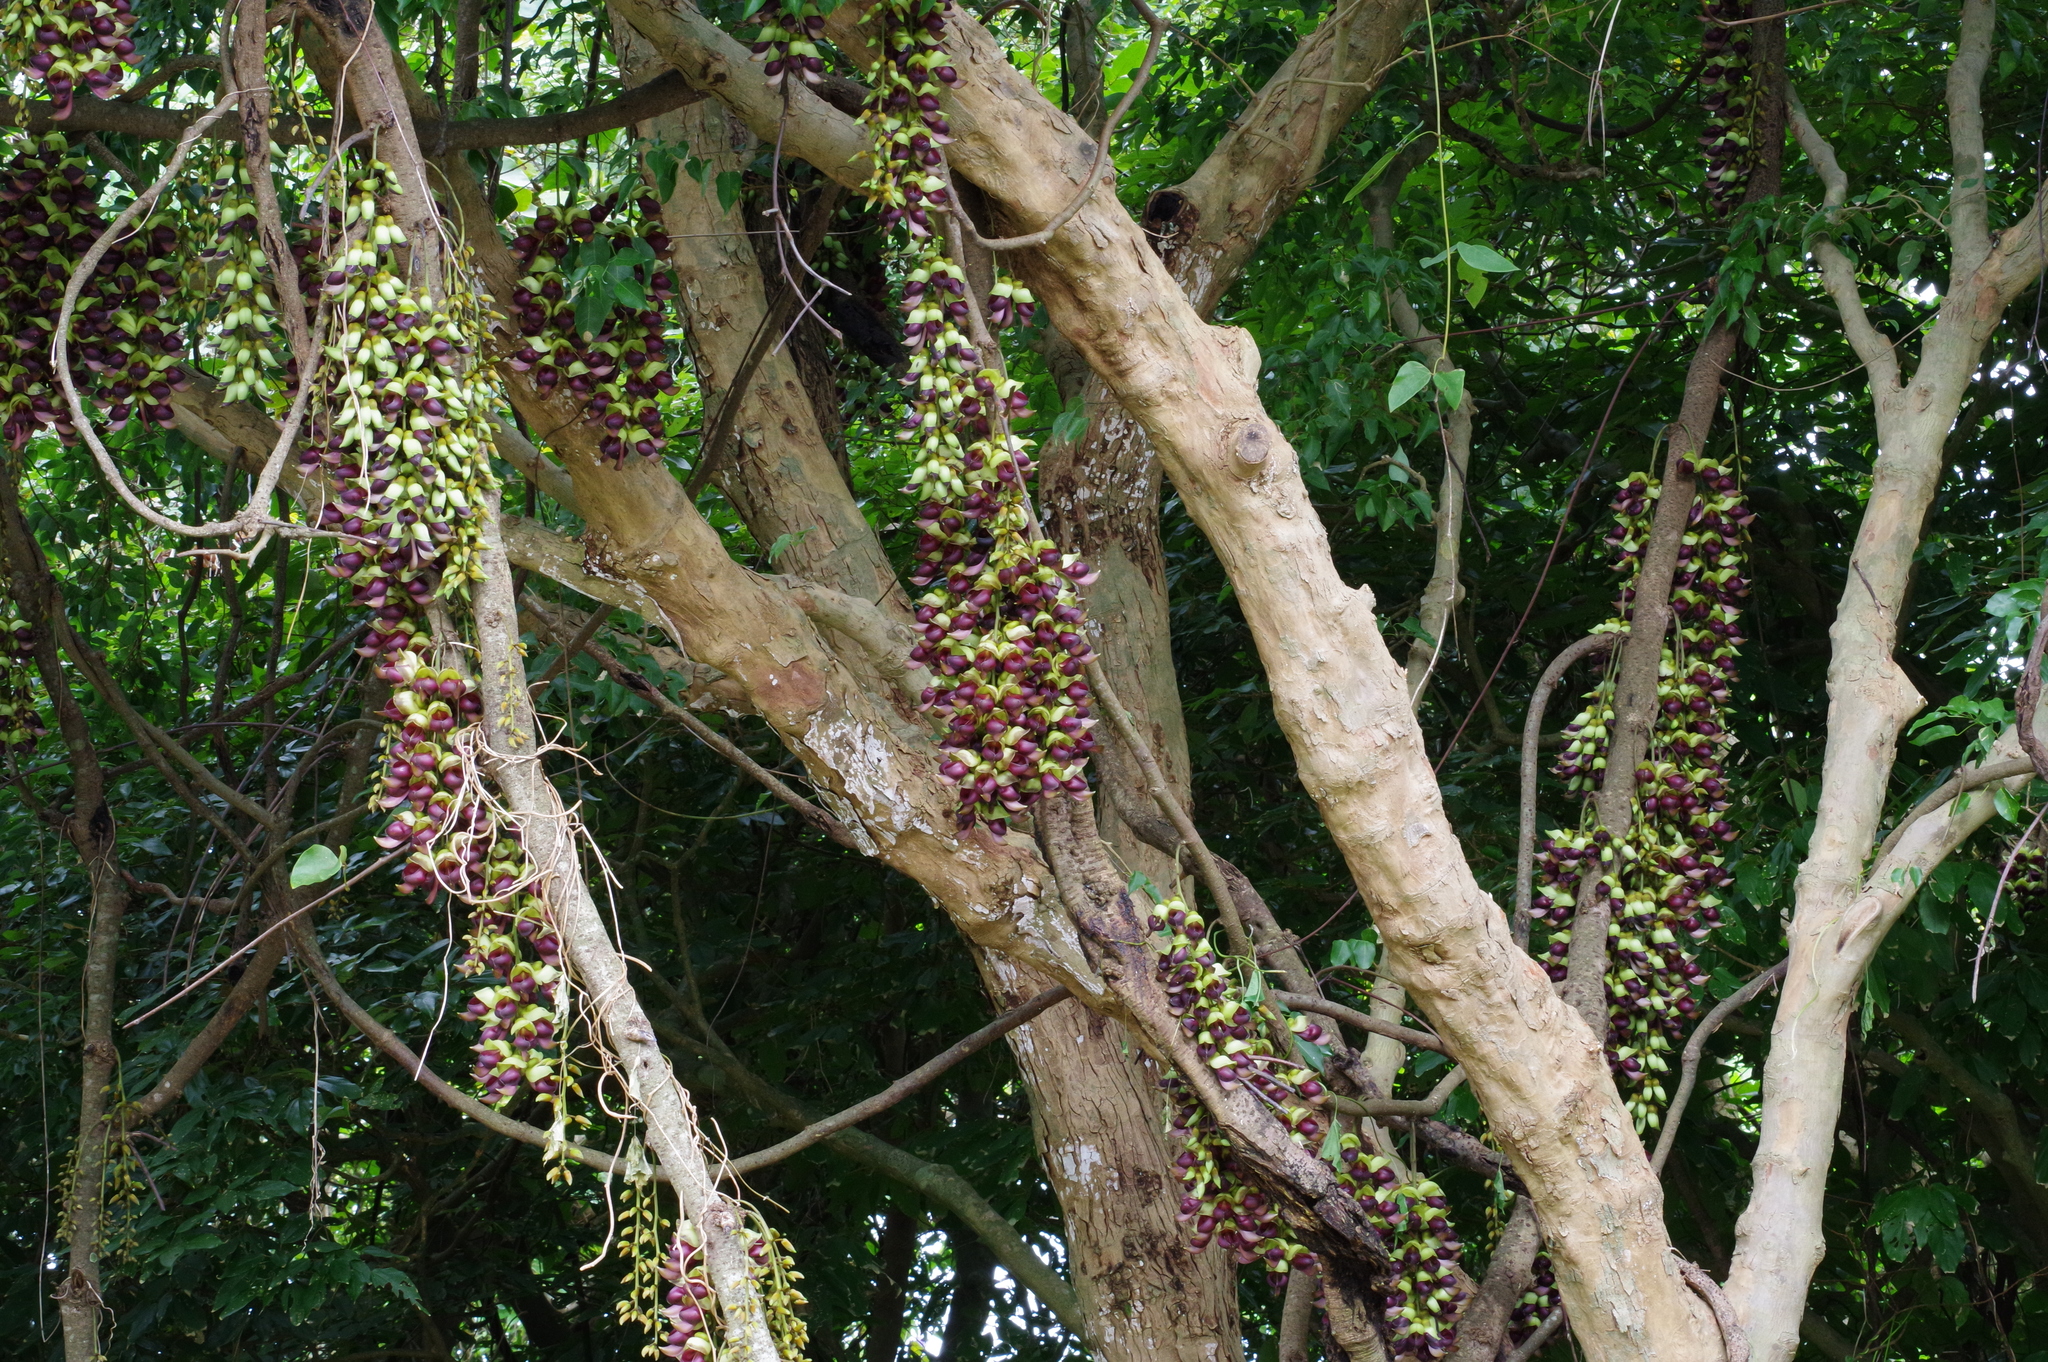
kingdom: Plantae
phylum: Tracheophyta
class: Magnoliopsida
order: Fabales
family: Fabaceae
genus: Mucuna
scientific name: Mucuna macrocarpa
